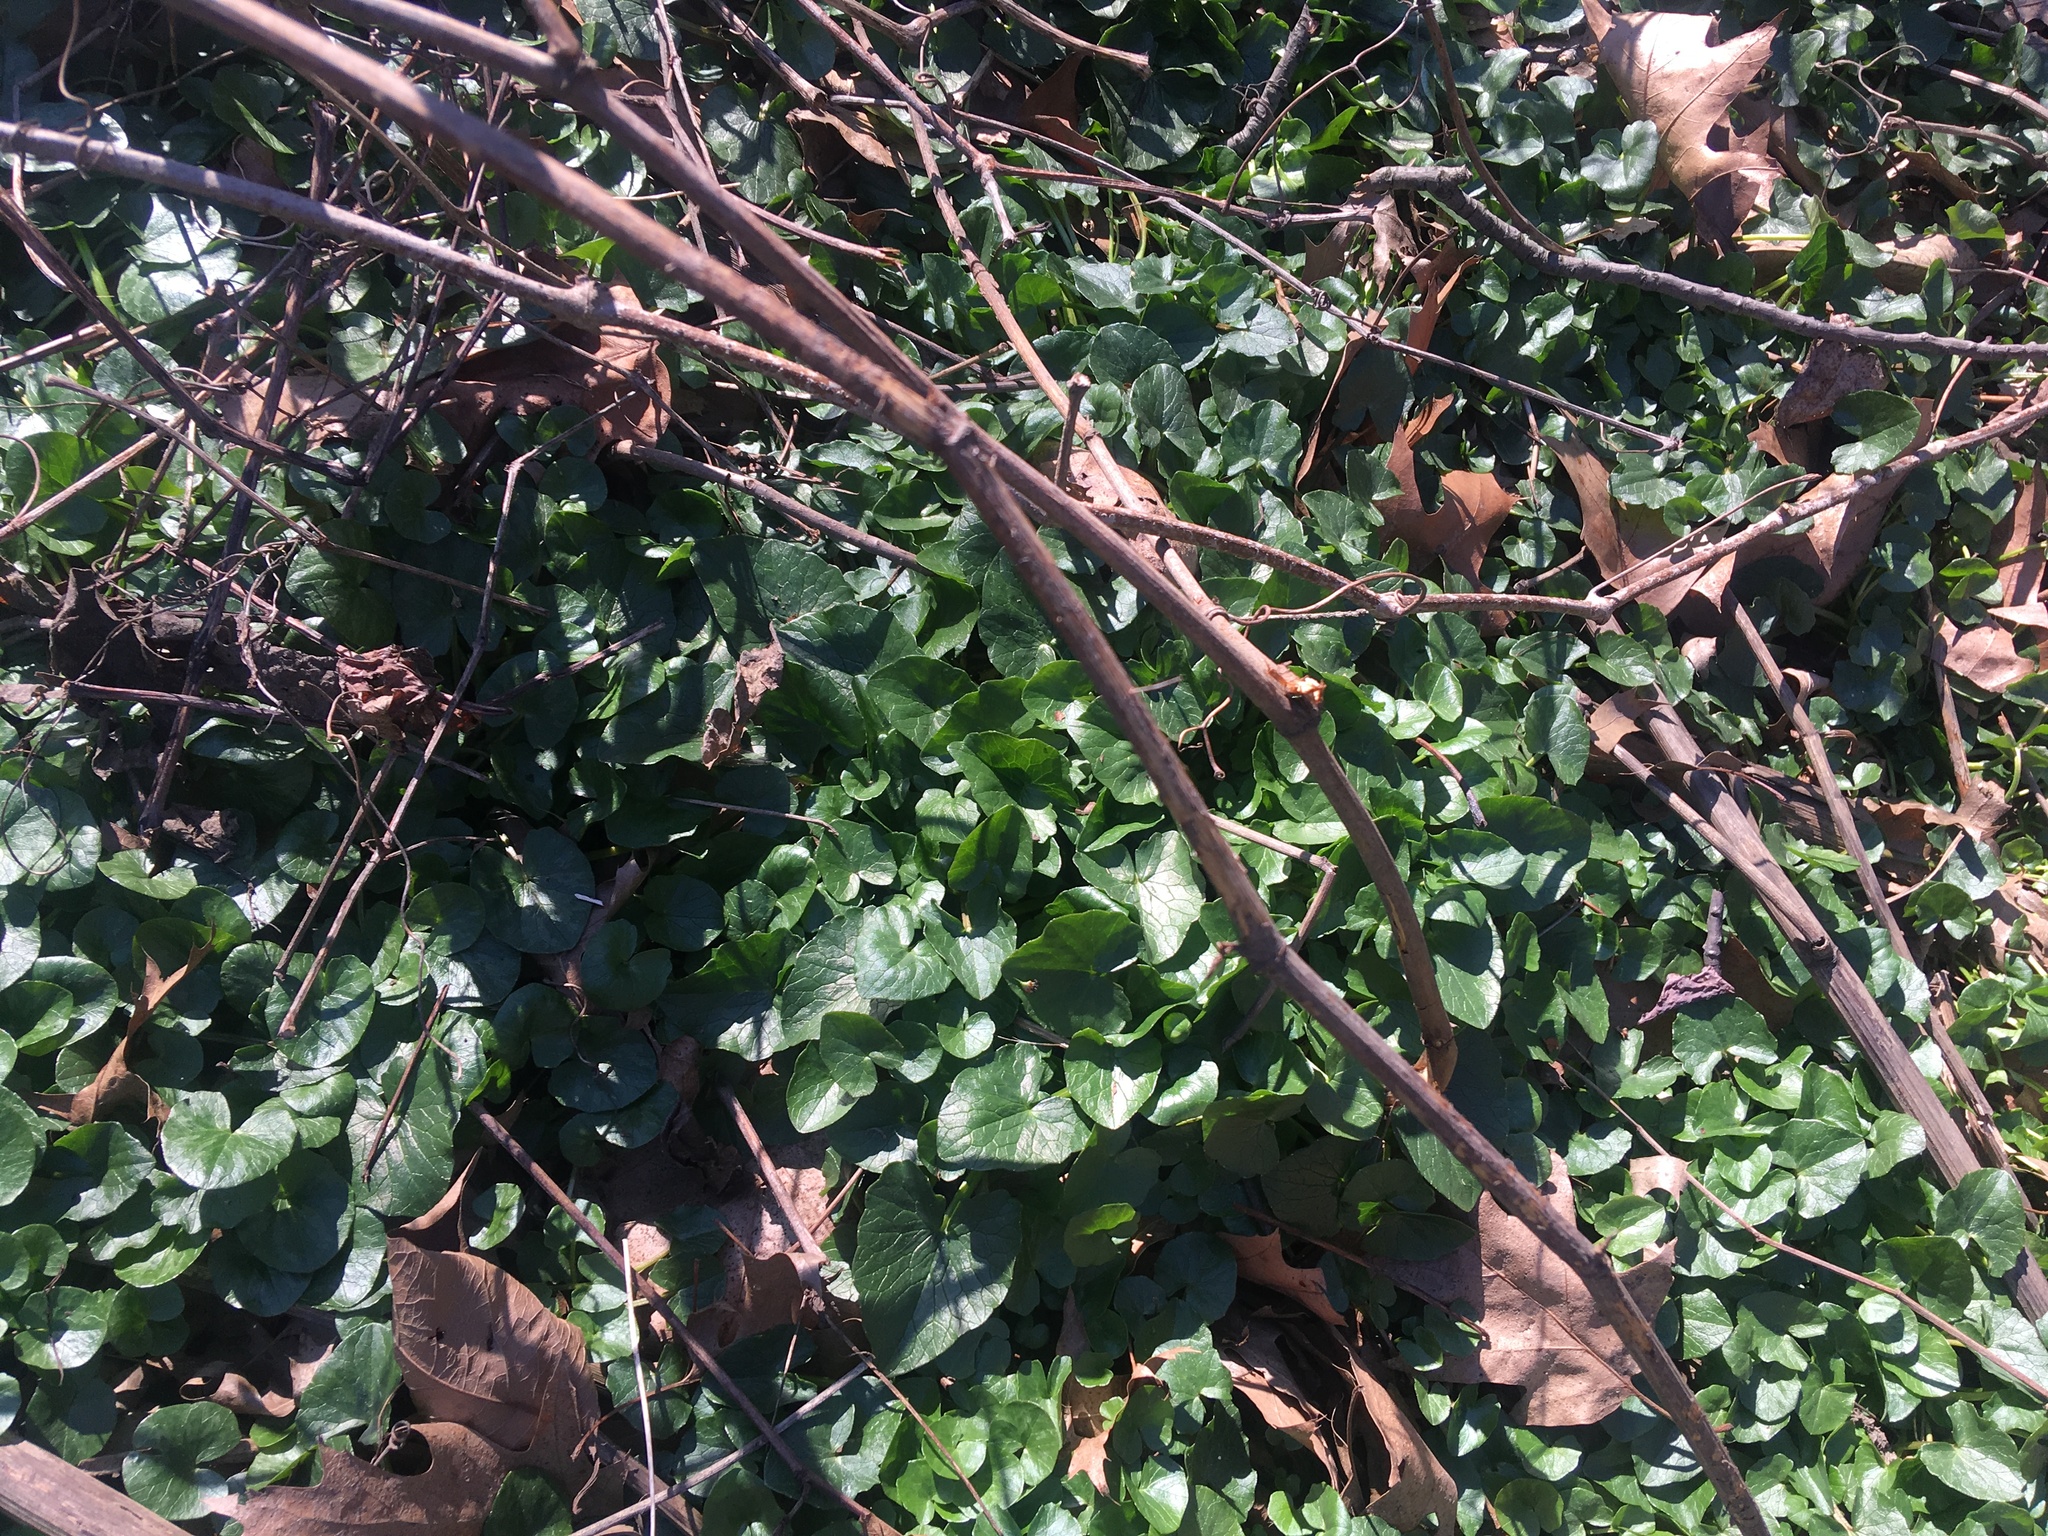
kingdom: Plantae
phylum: Tracheophyta
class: Magnoliopsida
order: Ranunculales
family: Ranunculaceae
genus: Ficaria
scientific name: Ficaria verna
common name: Lesser celandine
